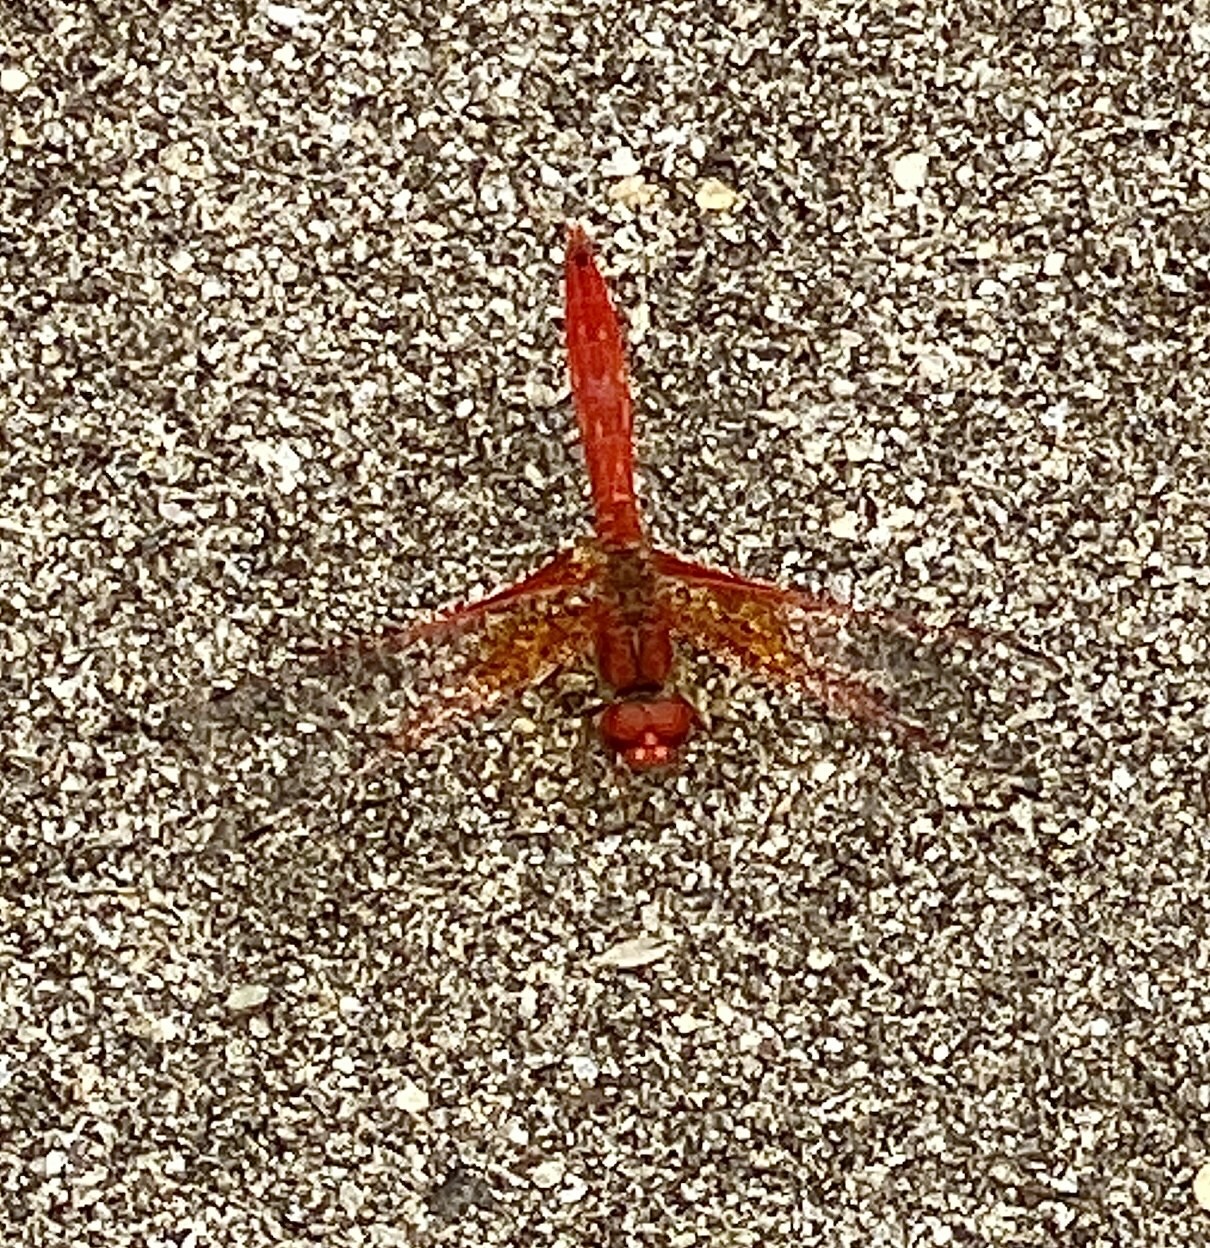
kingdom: Animalia
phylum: Arthropoda
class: Insecta
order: Odonata
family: Libellulidae
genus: Trithemis
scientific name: Trithemis kirbyi
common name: Kirby's dropwing
